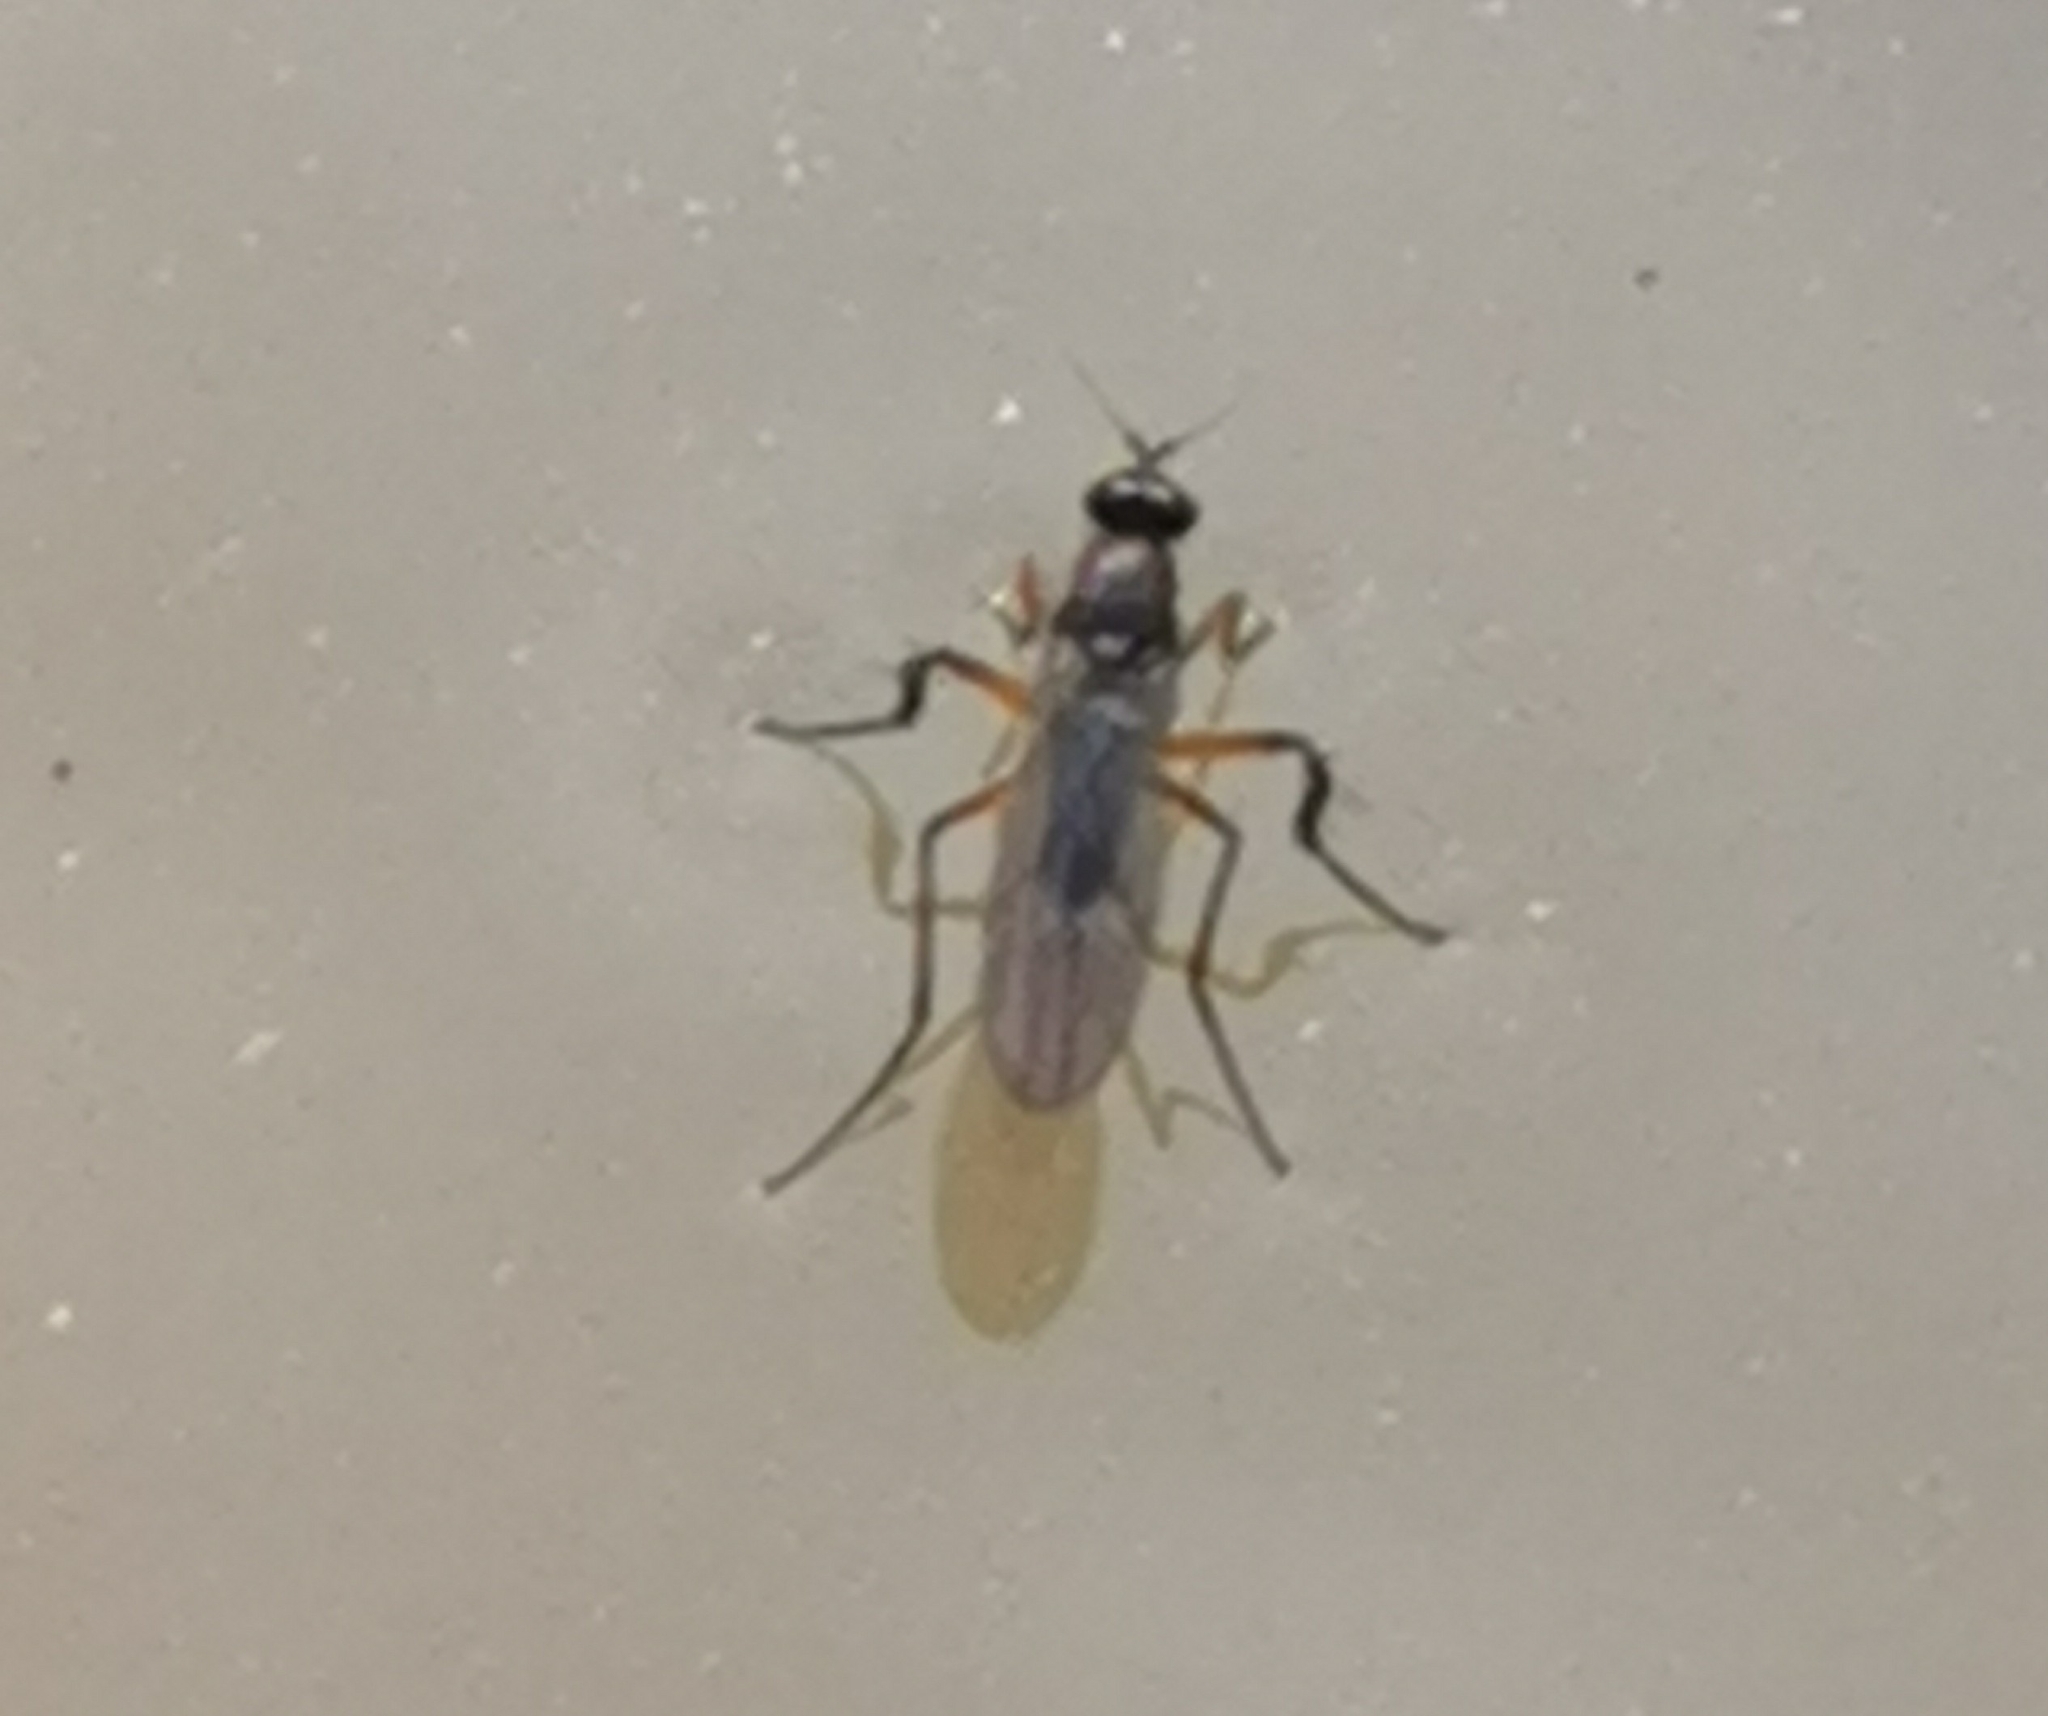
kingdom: Animalia
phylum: Arthropoda
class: Insecta
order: Diptera
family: Dolichopodidae
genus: Campsicnemus
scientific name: Campsicnemus scambus
